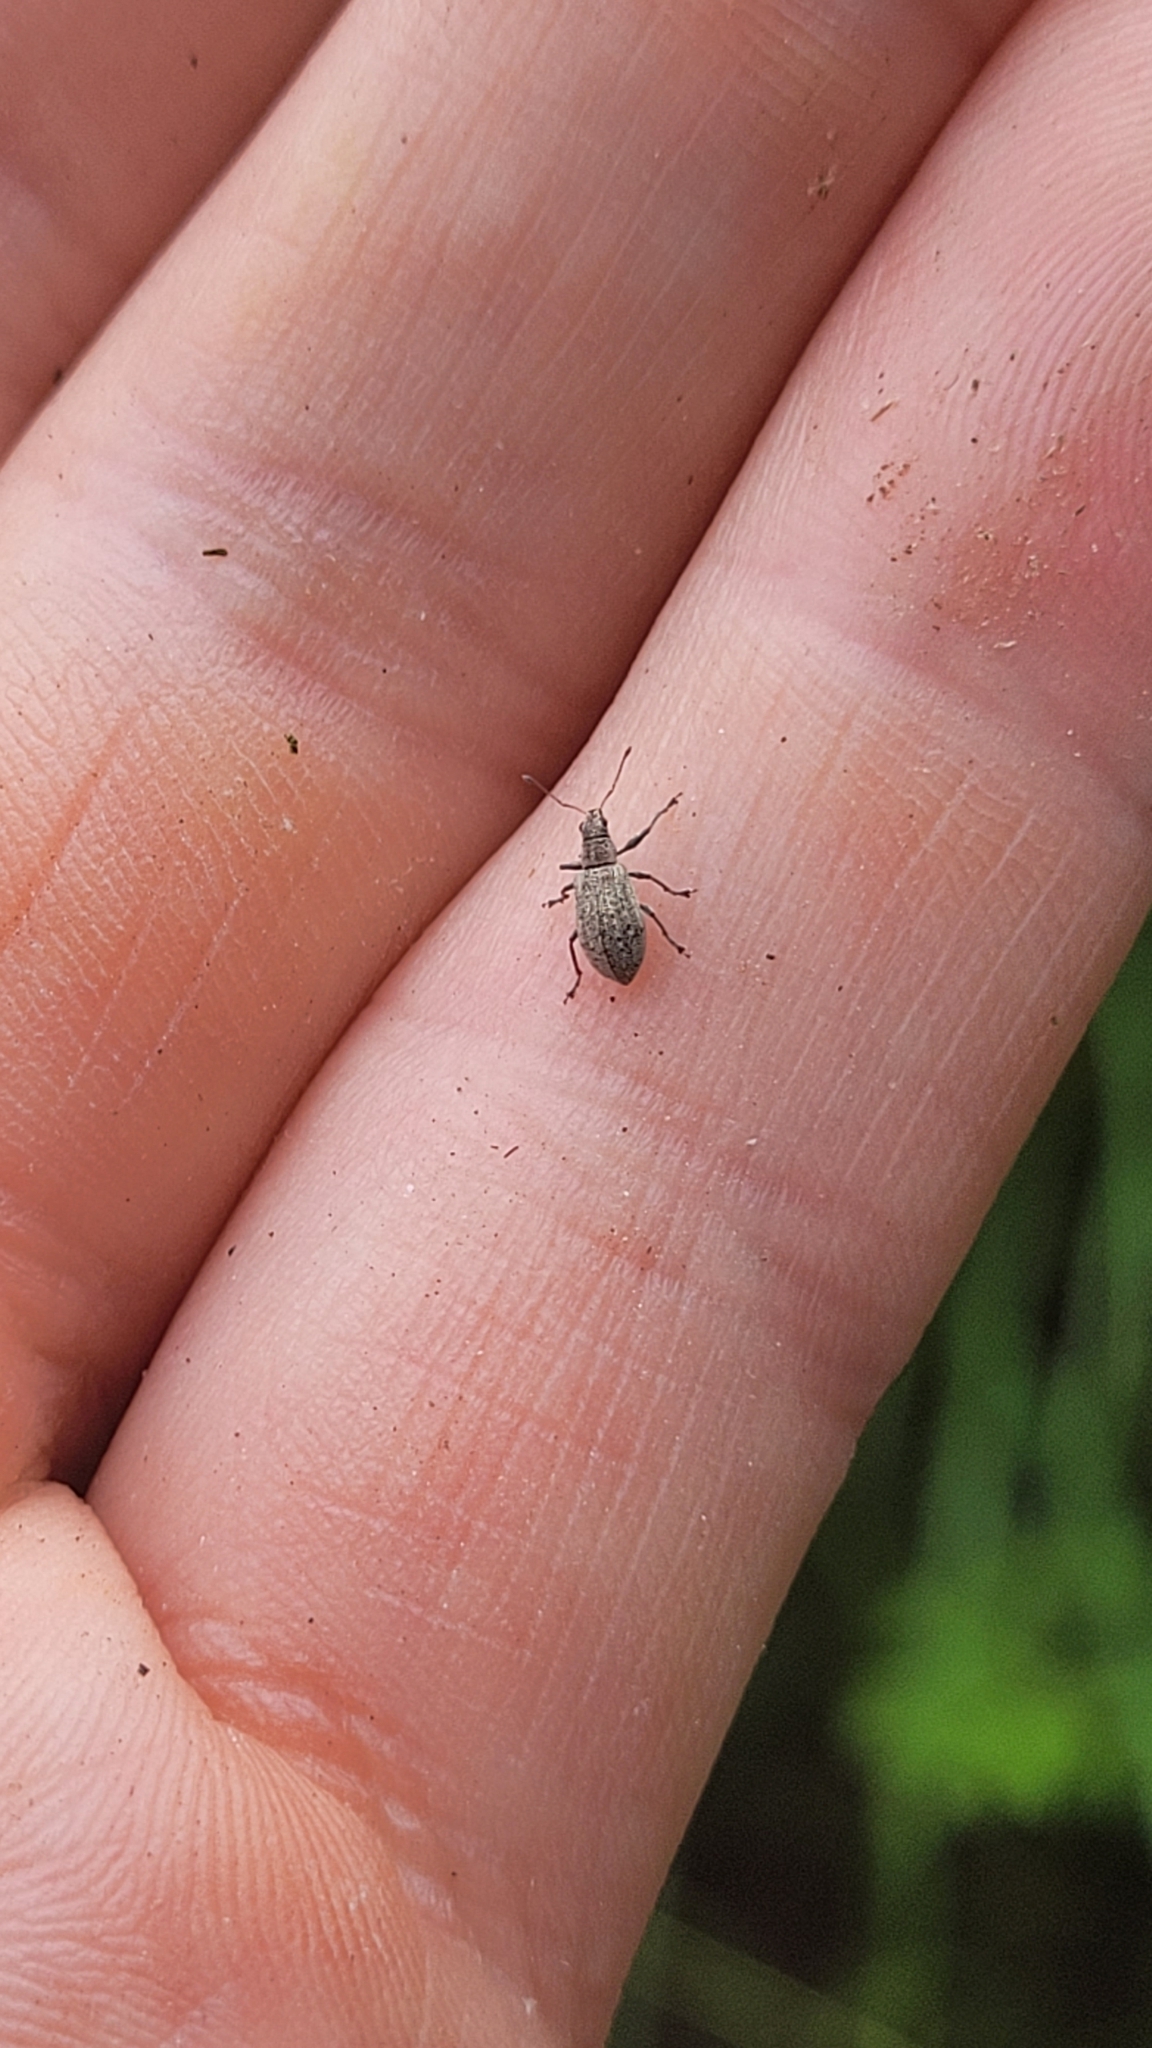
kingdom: Animalia
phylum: Arthropoda
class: Insecta
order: Coleoptera
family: Curculionidae
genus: Polydrusus
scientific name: Polydrusus cervinus
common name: Weevil
